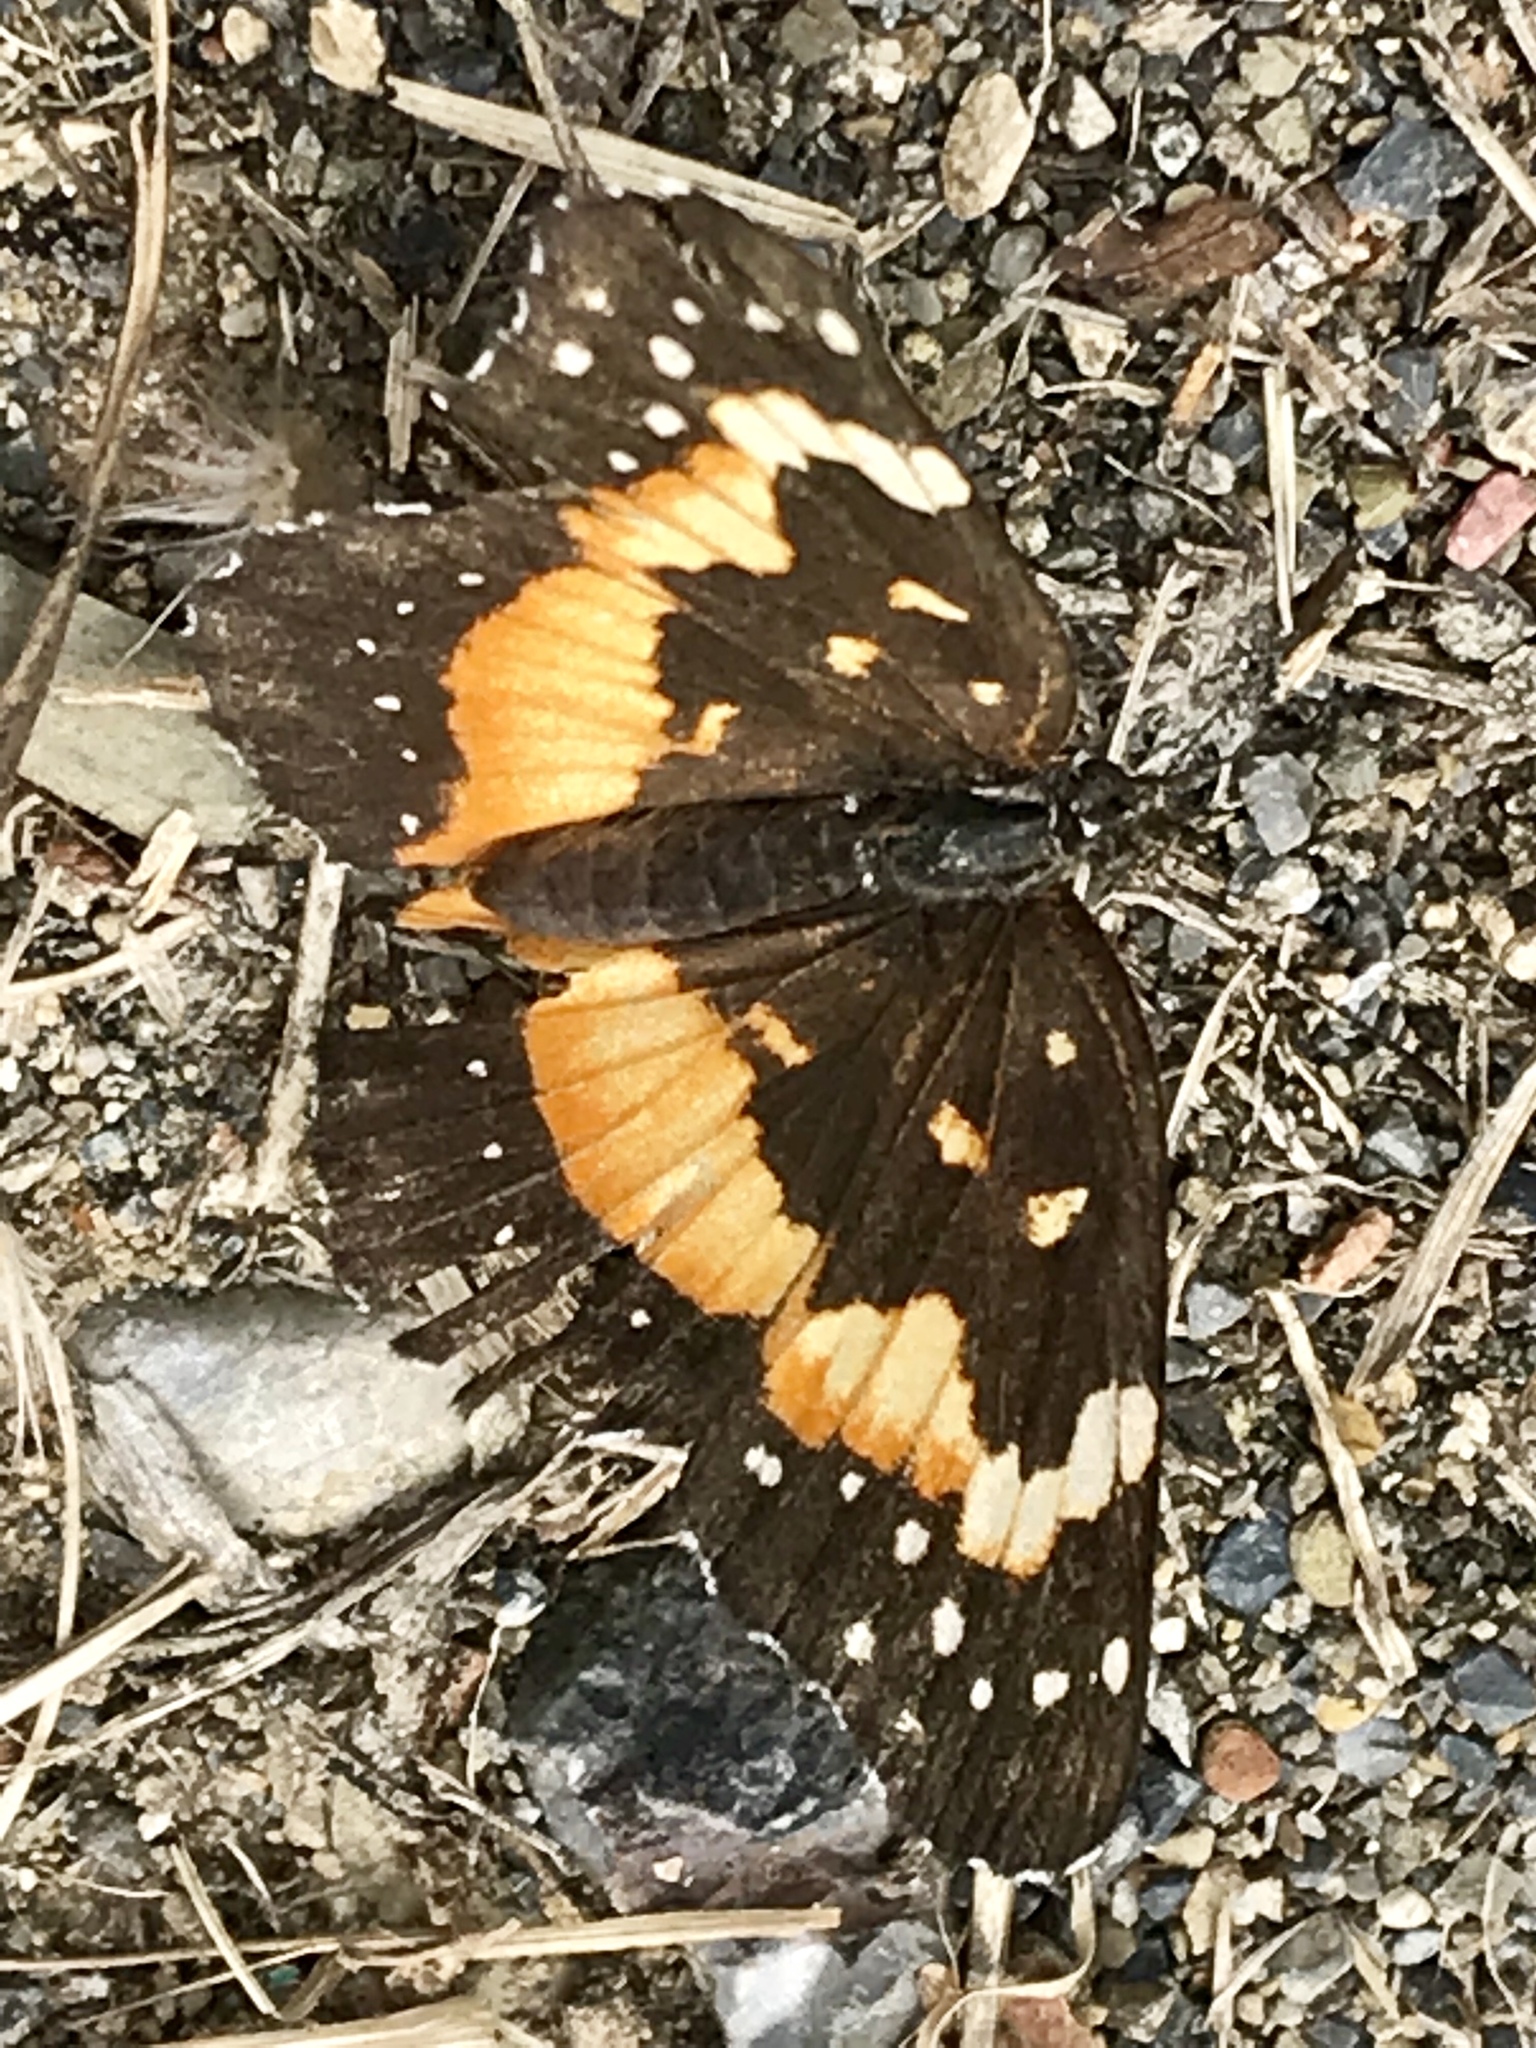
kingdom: Animalia
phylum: Arthropoda
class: Insecta
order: Lepidoptera
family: Nymphalidae
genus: Chlosyne
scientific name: Chlosyne lacinia
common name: Bordered patch
